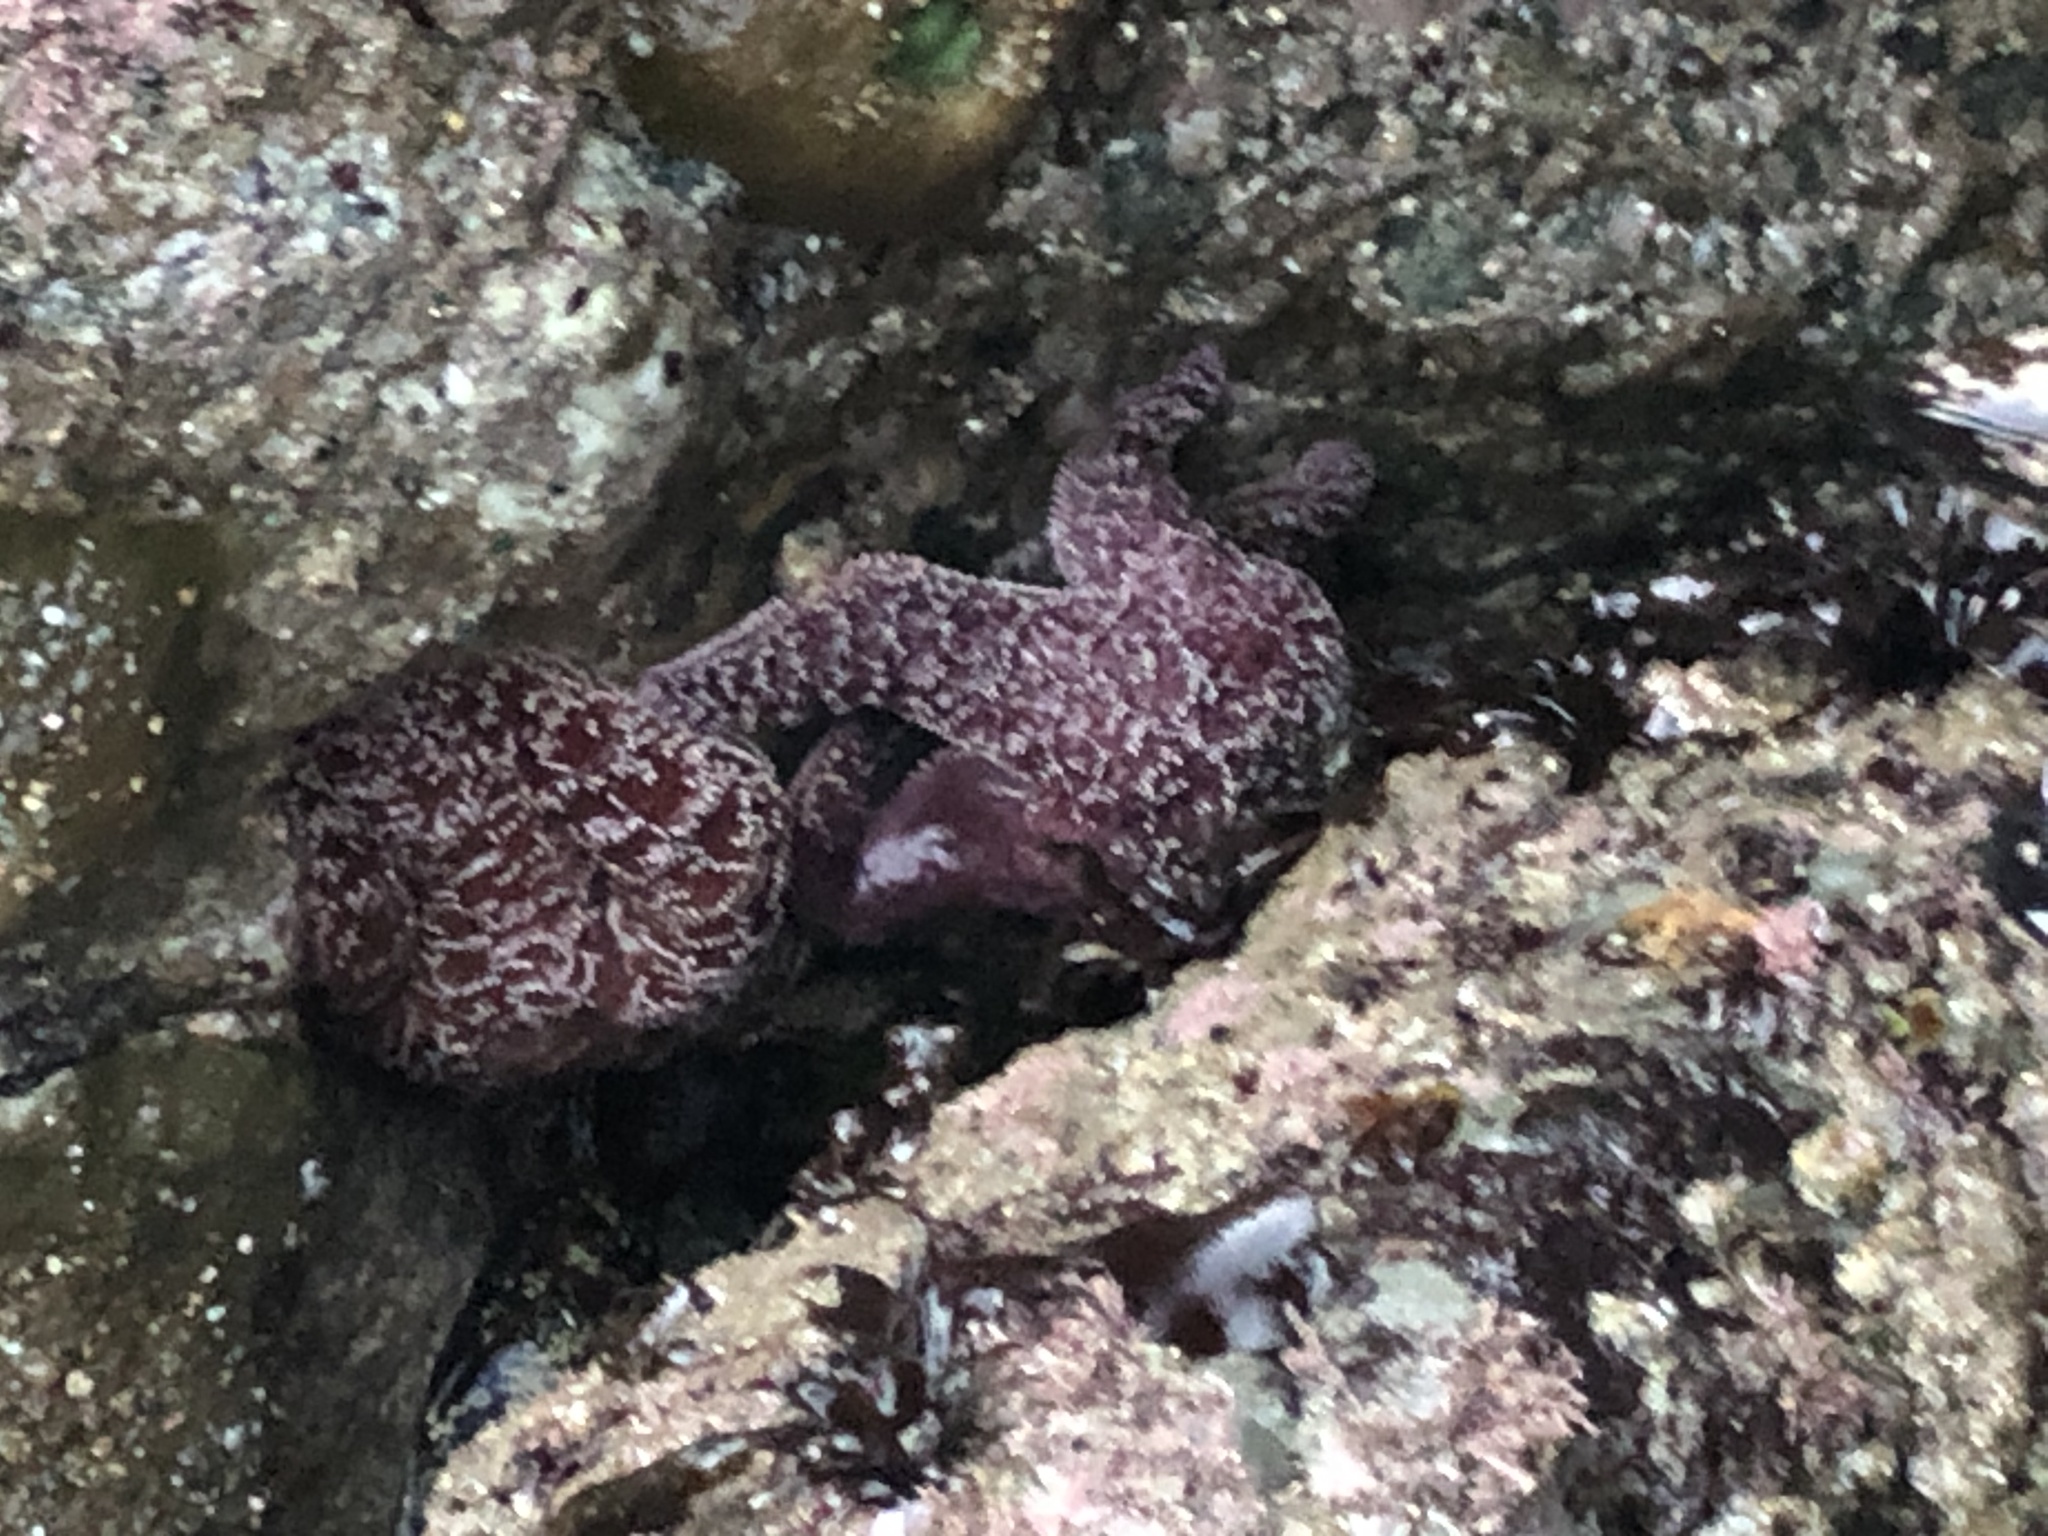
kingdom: Animalia
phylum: Echinodermata
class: Asteroidea
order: Forcipulatida
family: Asteriidae
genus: Pisaster
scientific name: Pisaster ochraceus
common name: Ochre stars
